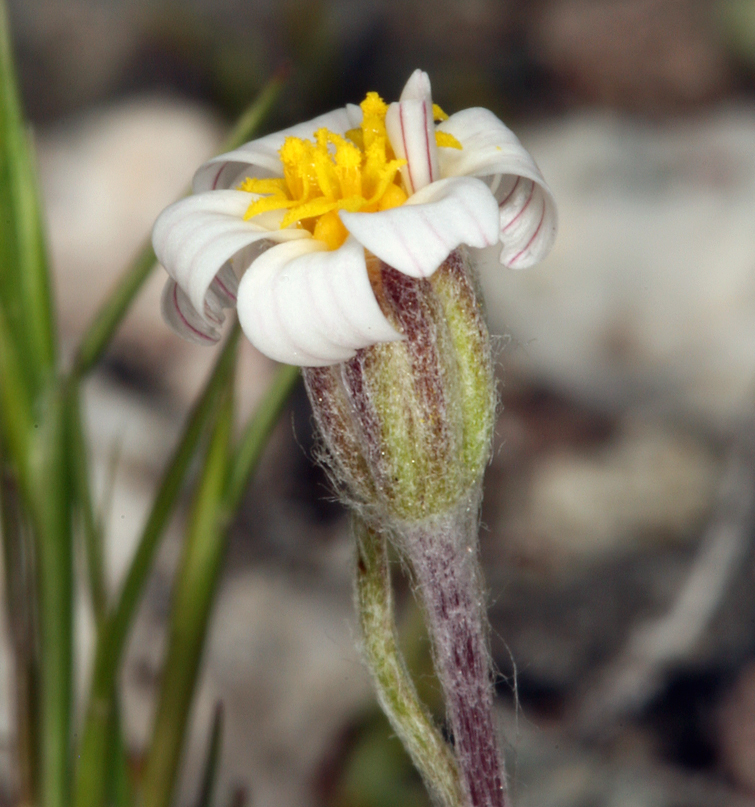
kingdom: Plantae
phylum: Tracheophyta
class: Magnoliopsida
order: Asterales
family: Asteraceae
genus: Eriophyllum
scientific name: Eriophyllum lanosum
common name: White easter-bonnets
